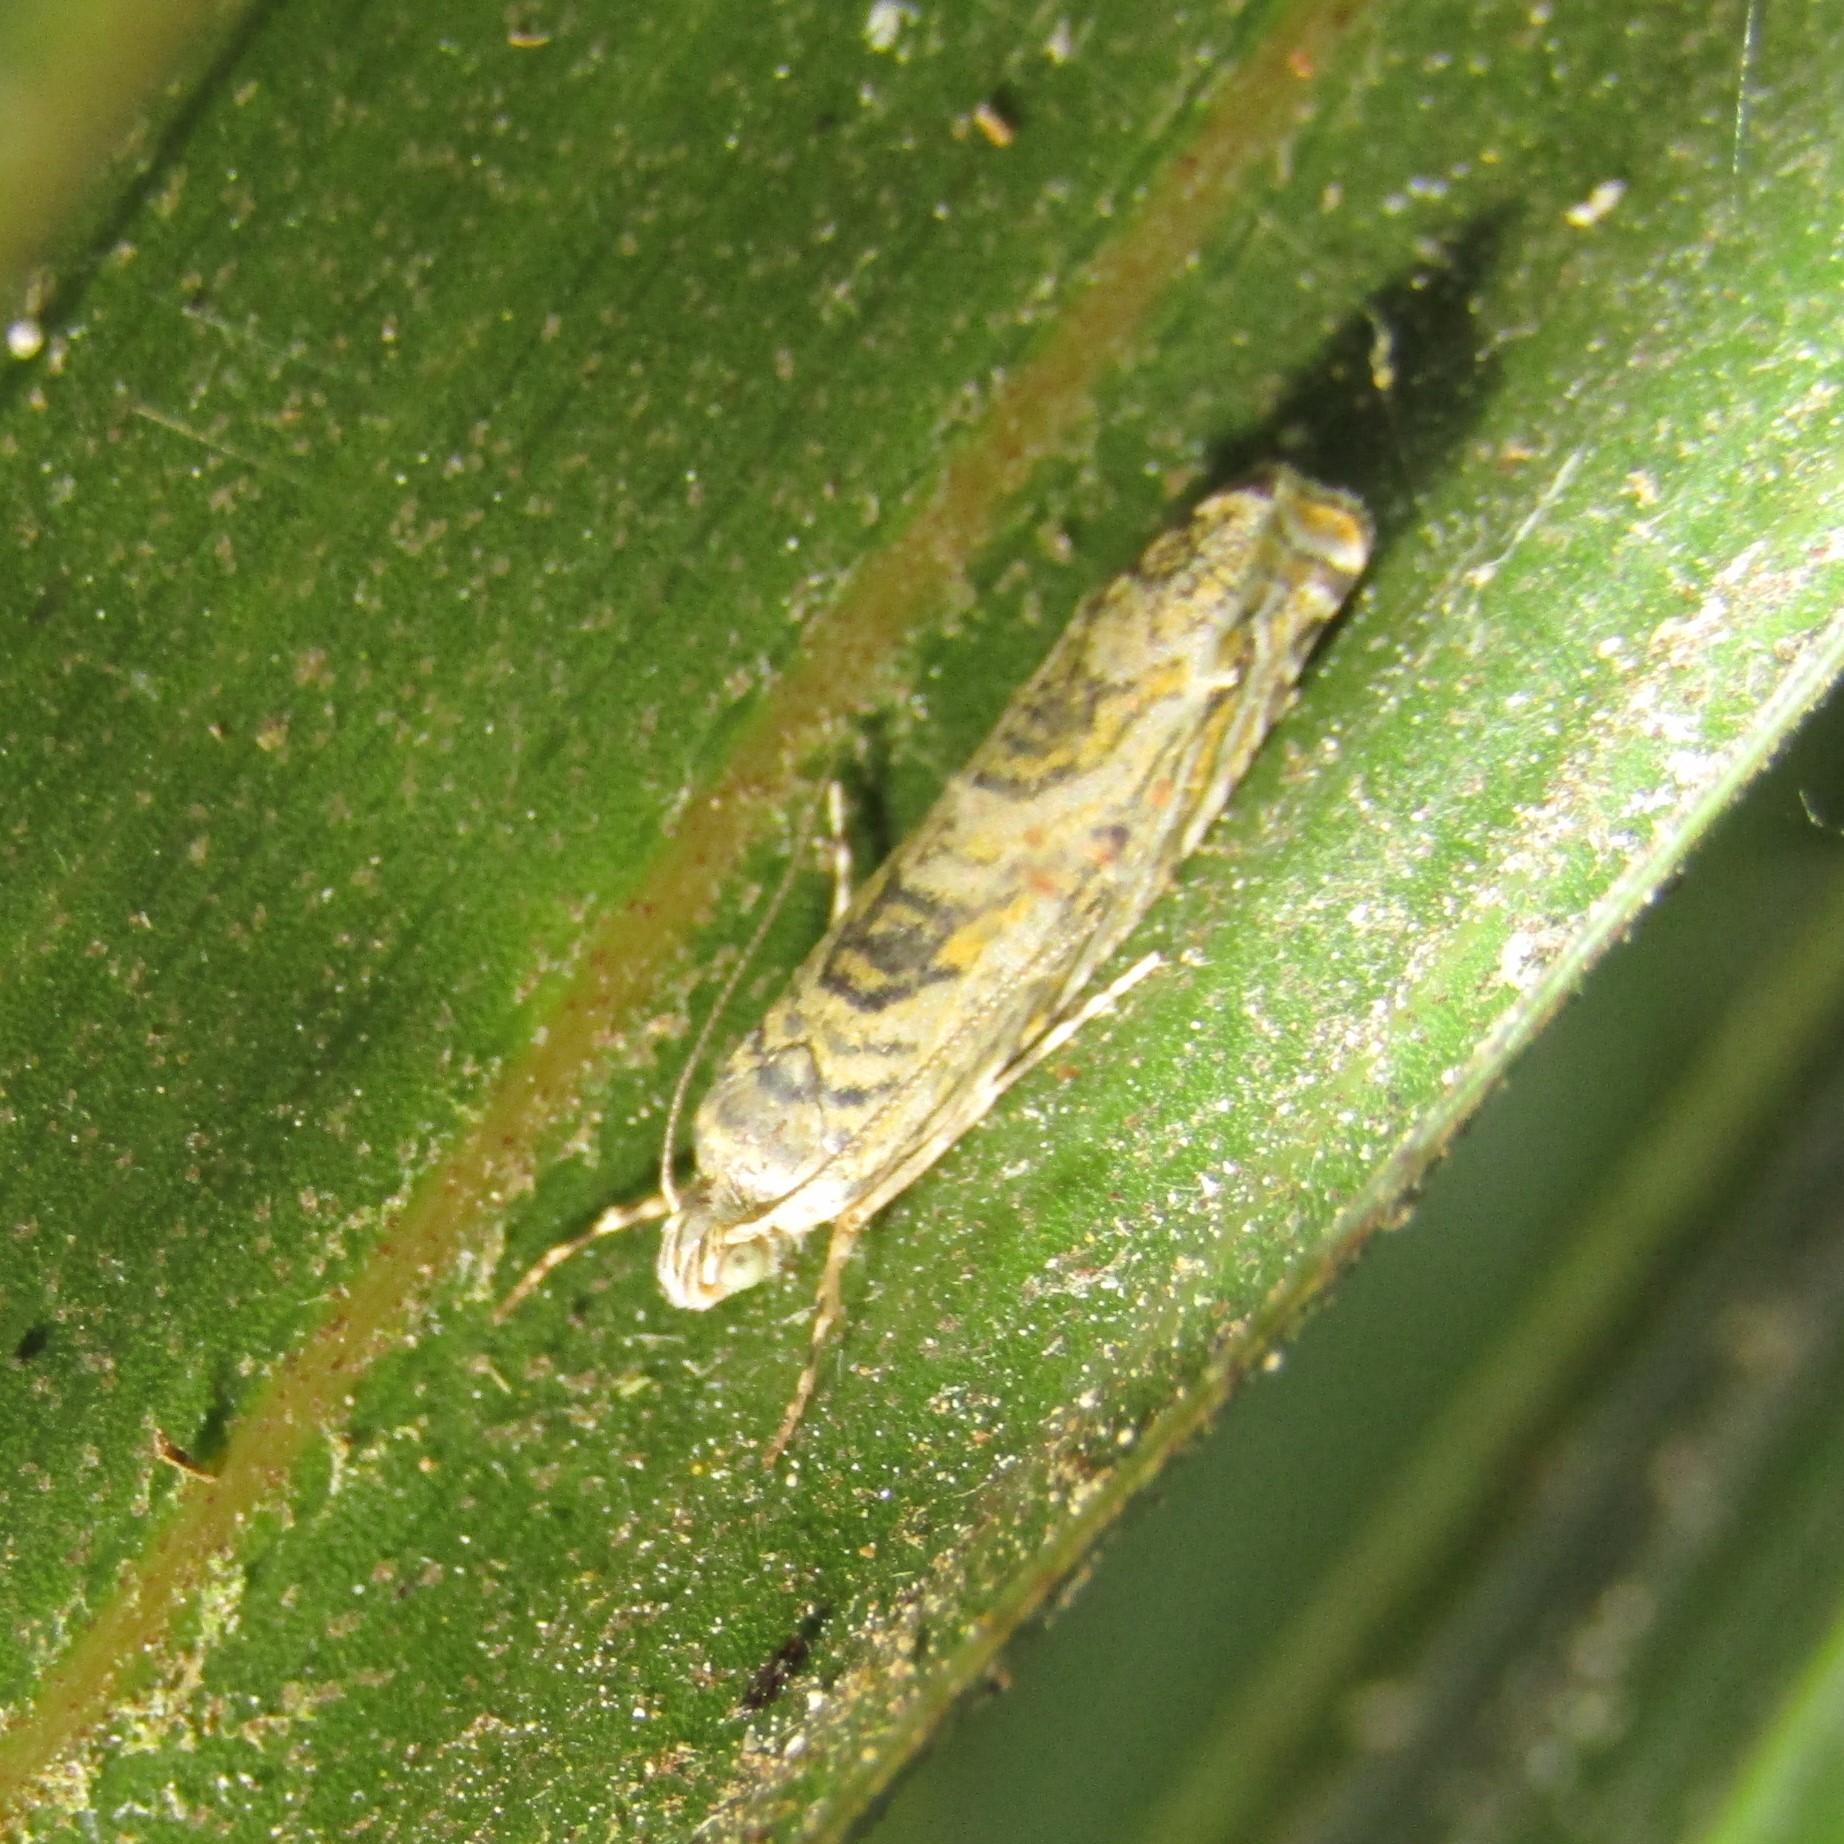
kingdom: Animalia
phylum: Arthropoda
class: Insecta
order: Lepidoptera
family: Plutellidae
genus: Doxophyrtis
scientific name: Doxophyrtis hydrocosma
